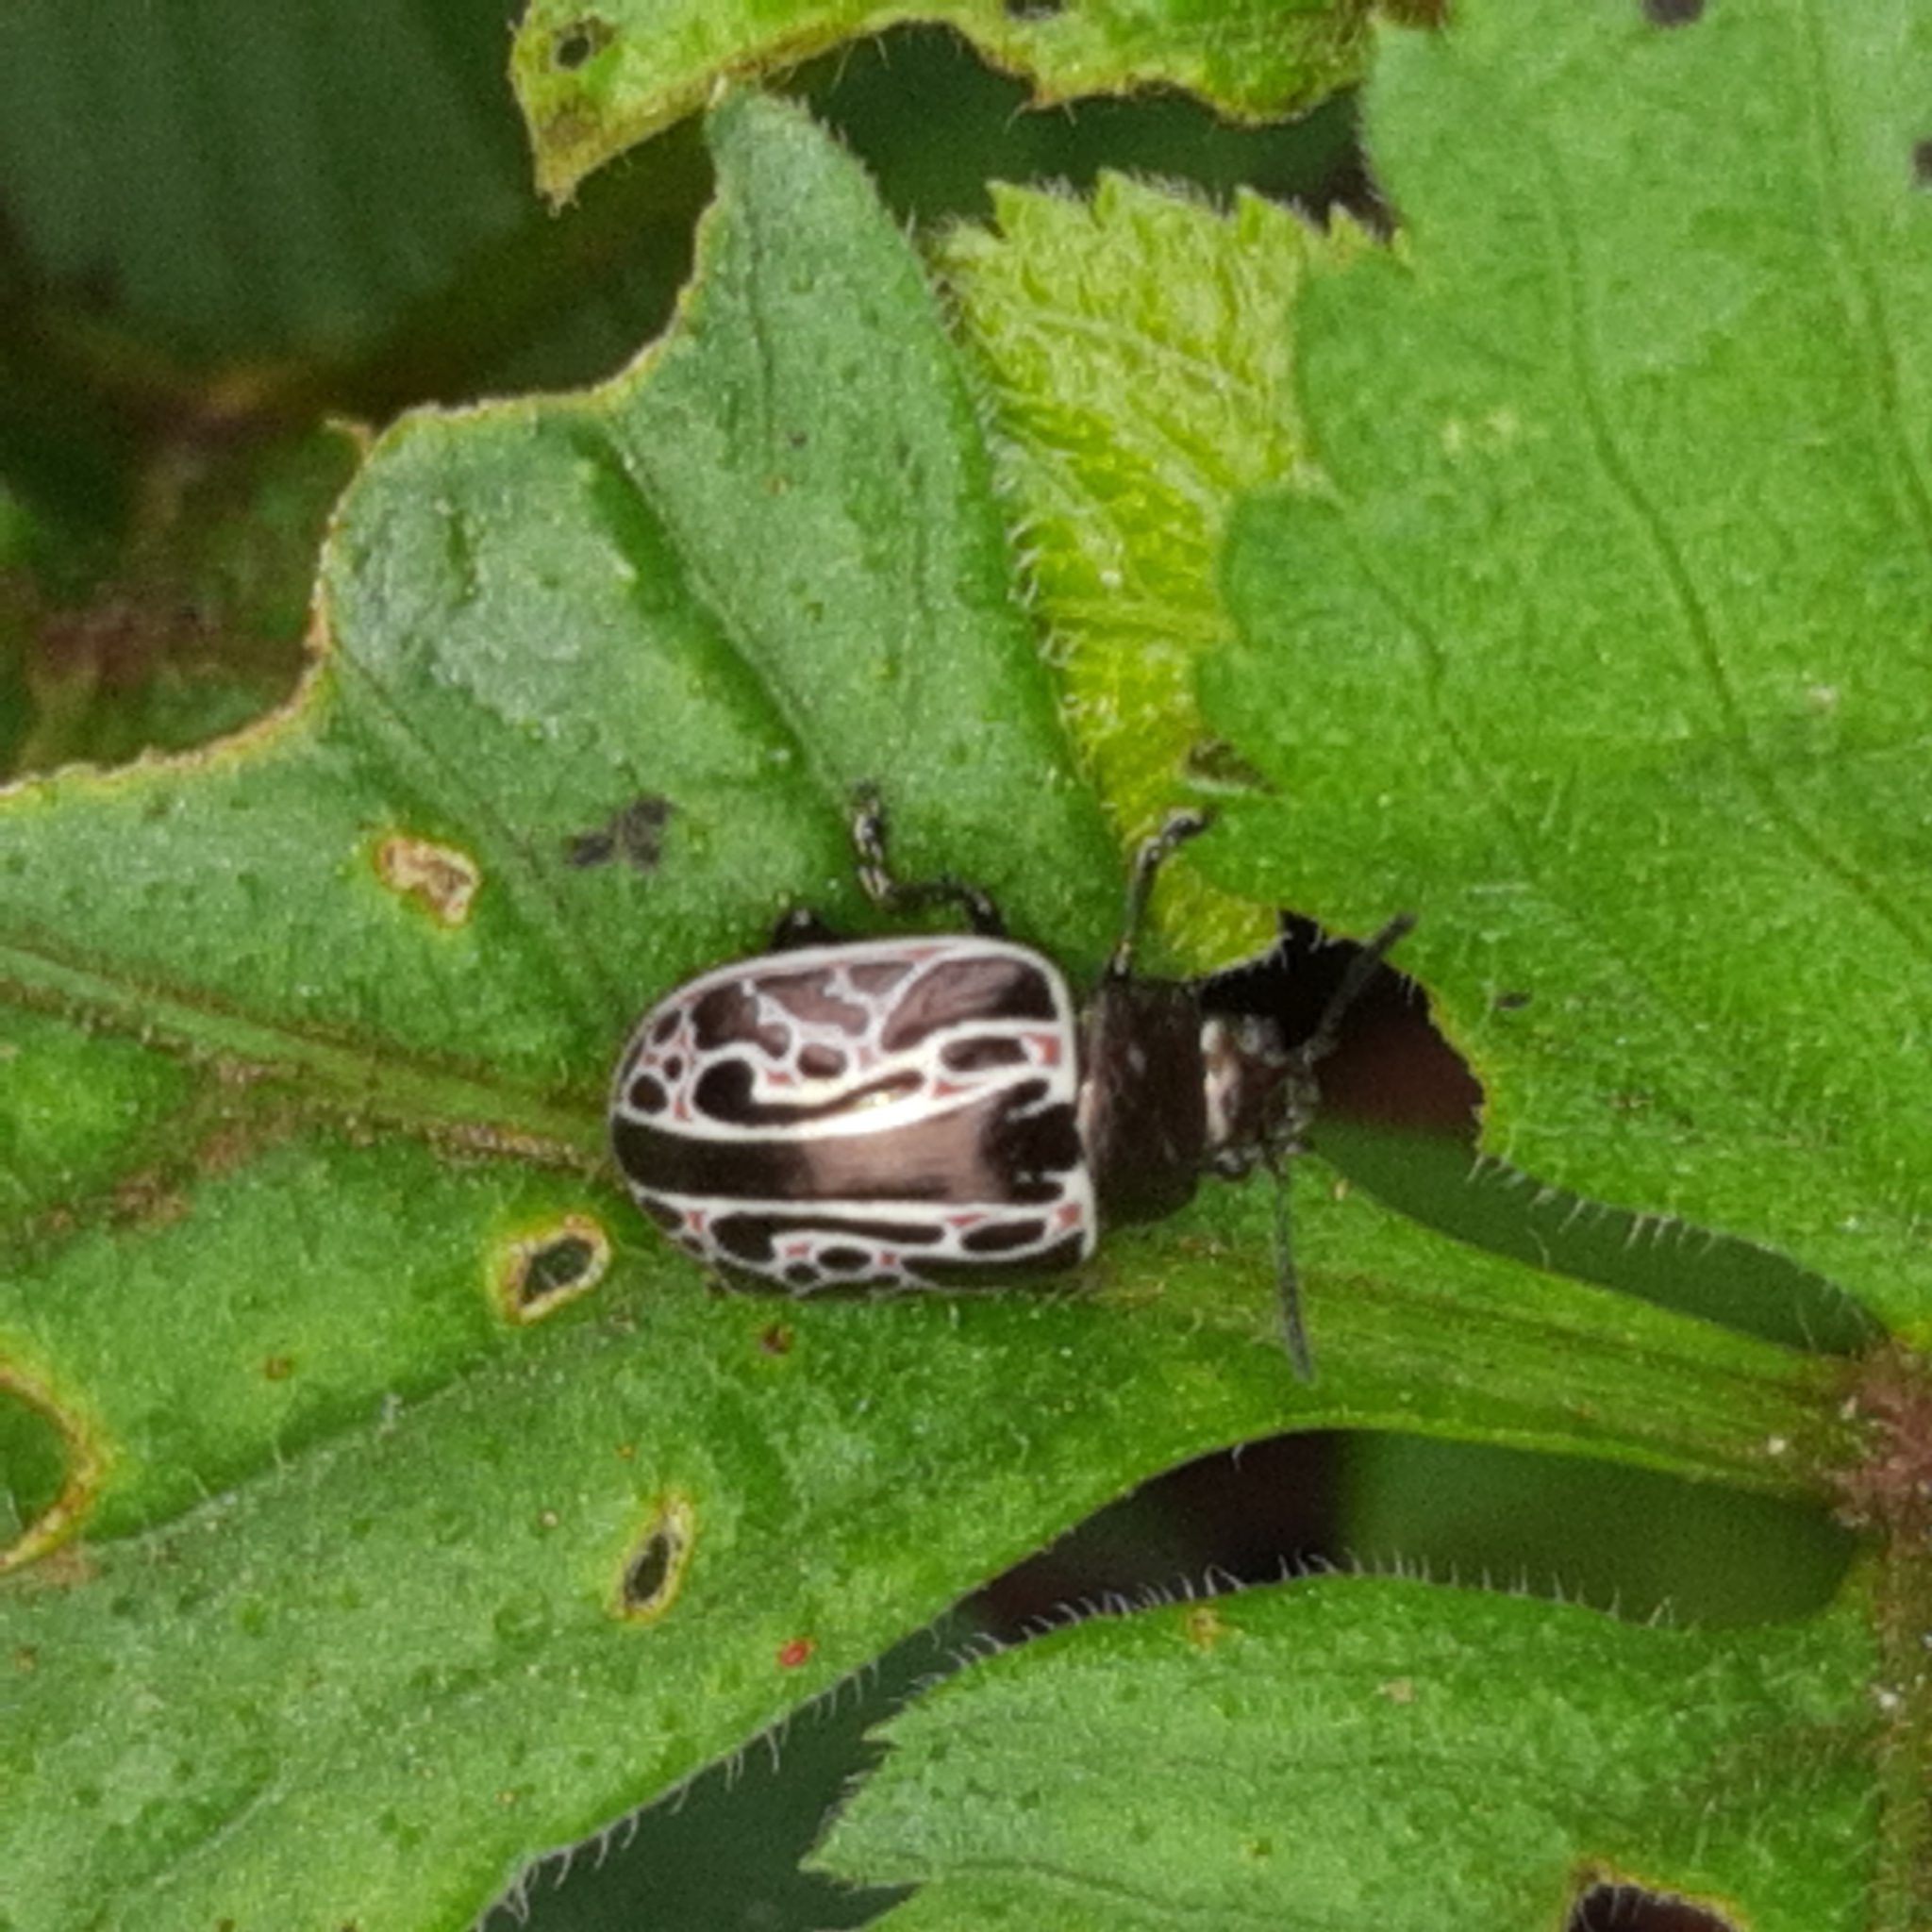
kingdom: Animalia
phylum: Arthropoda
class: Insecta
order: Coleoptera
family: Chrysomelidae
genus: Calligrapha
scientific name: Calligrapha elegantula
